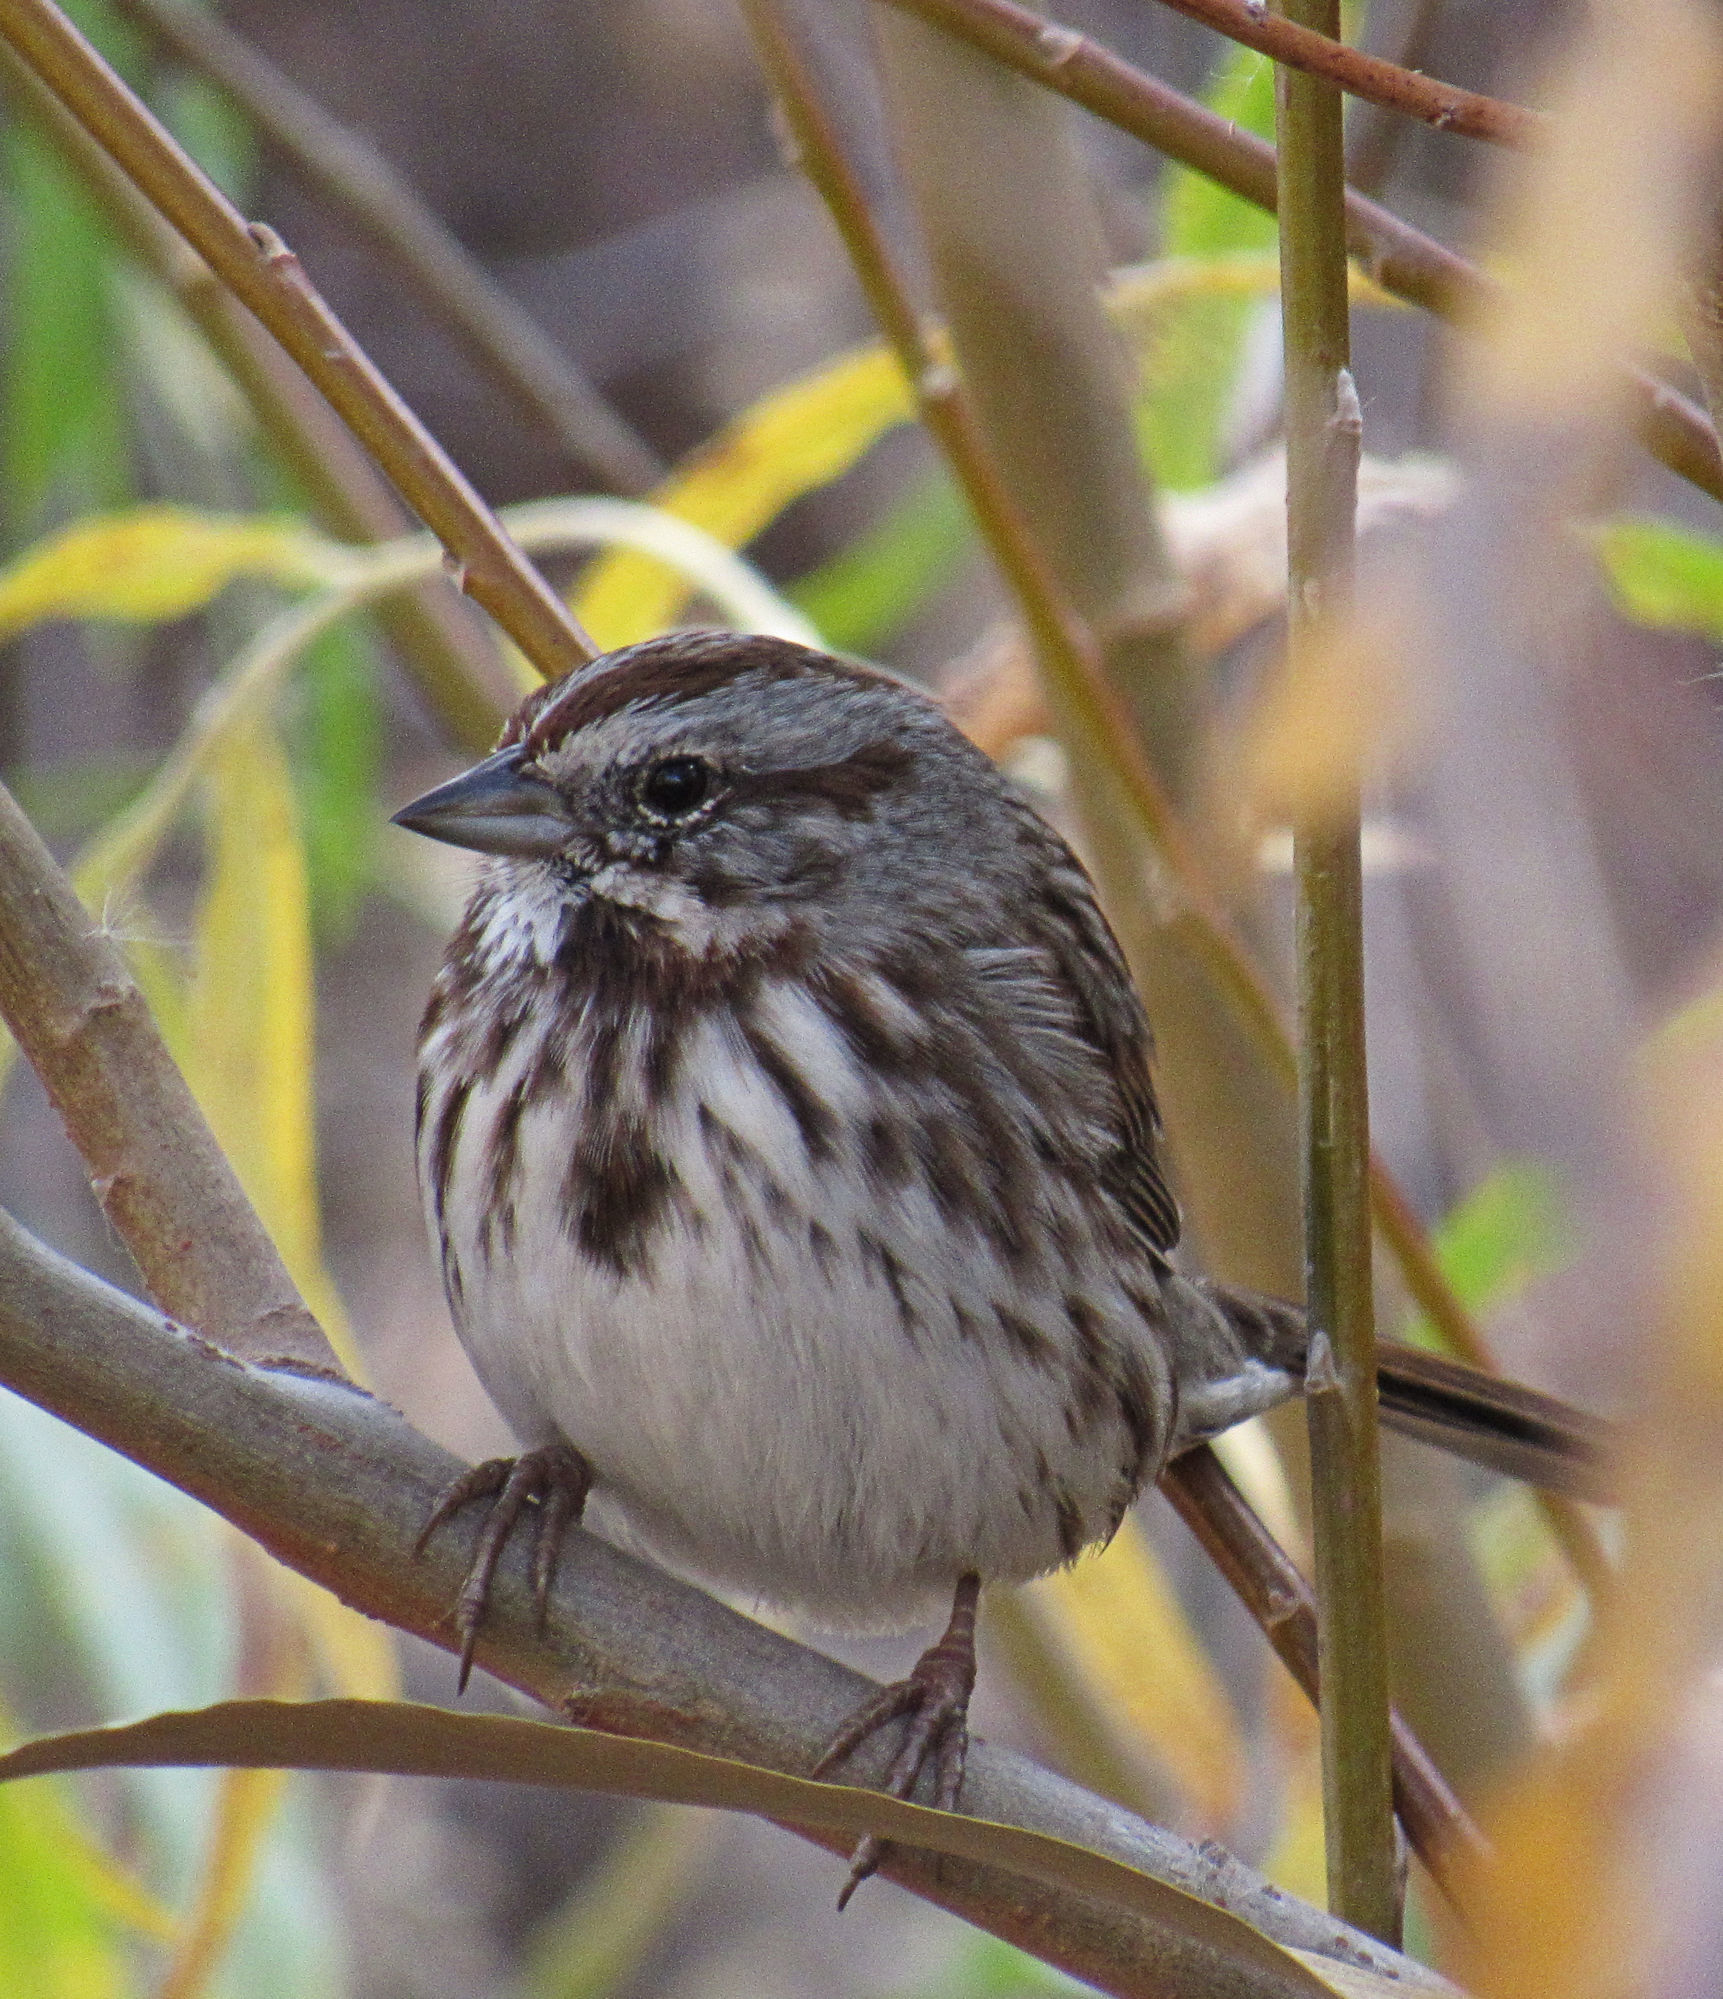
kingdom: Animalia
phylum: Chordata
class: Aves
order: Passeriformes
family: Passerellidae
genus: Melospiza
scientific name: Melospiza melodia
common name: Song sparrow
